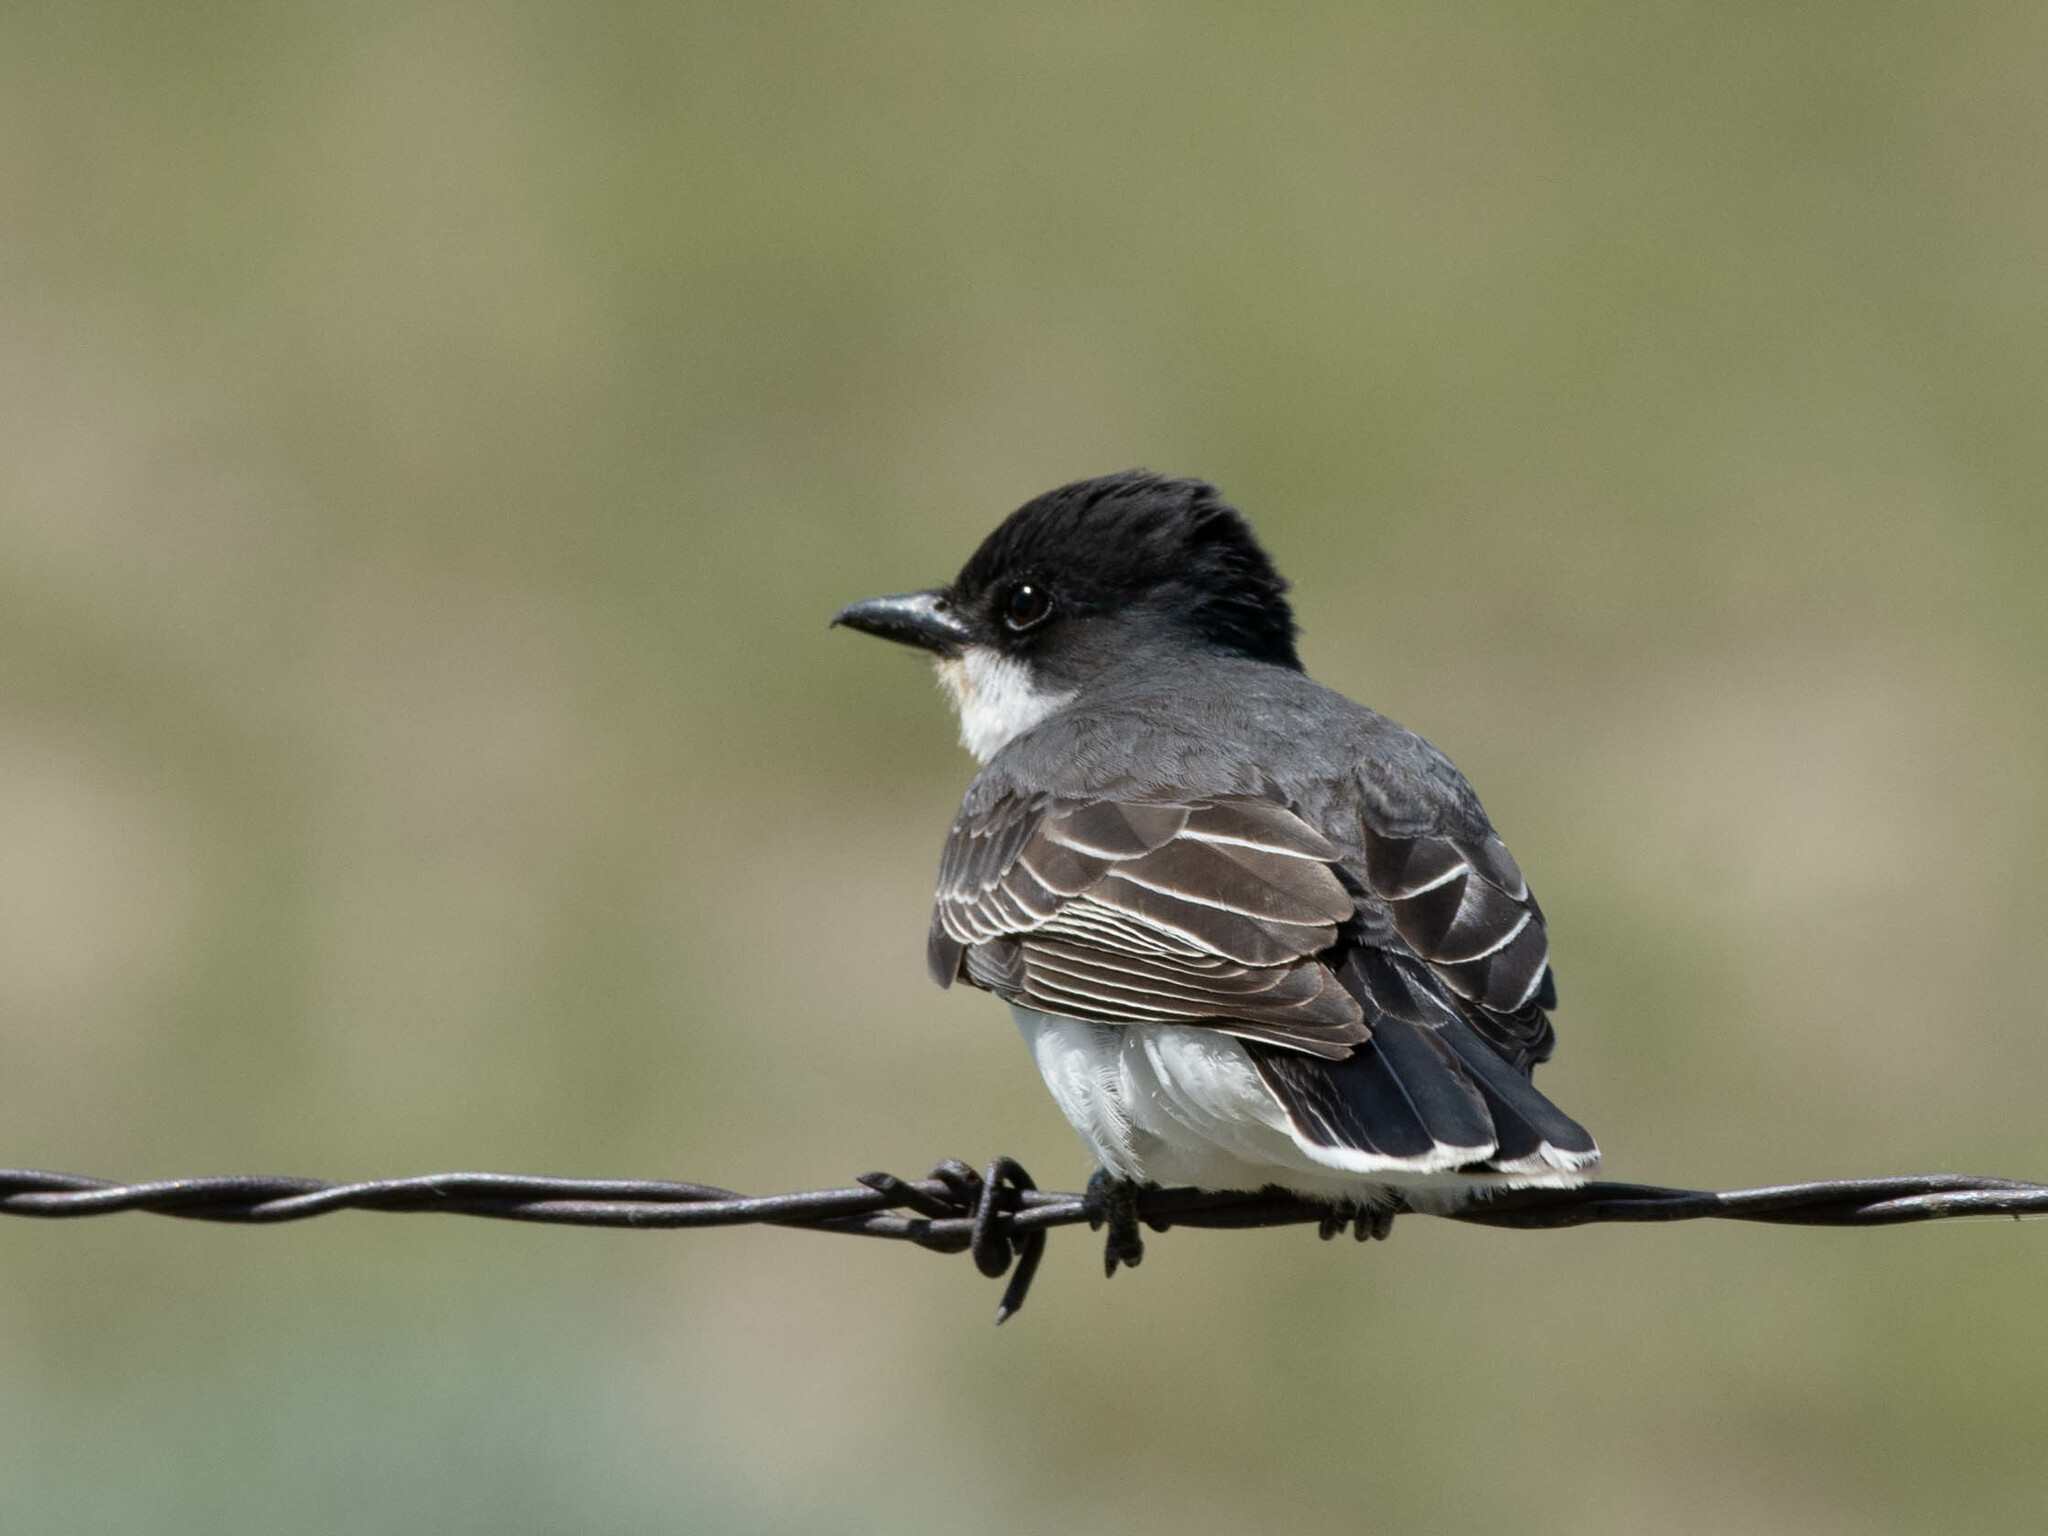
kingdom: Animalia
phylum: Chordata
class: Aves
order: Passeriformes
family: Tyrannidae
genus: Tyrannus
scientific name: Tyrannus tyrannus
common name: Eastern kingbird
